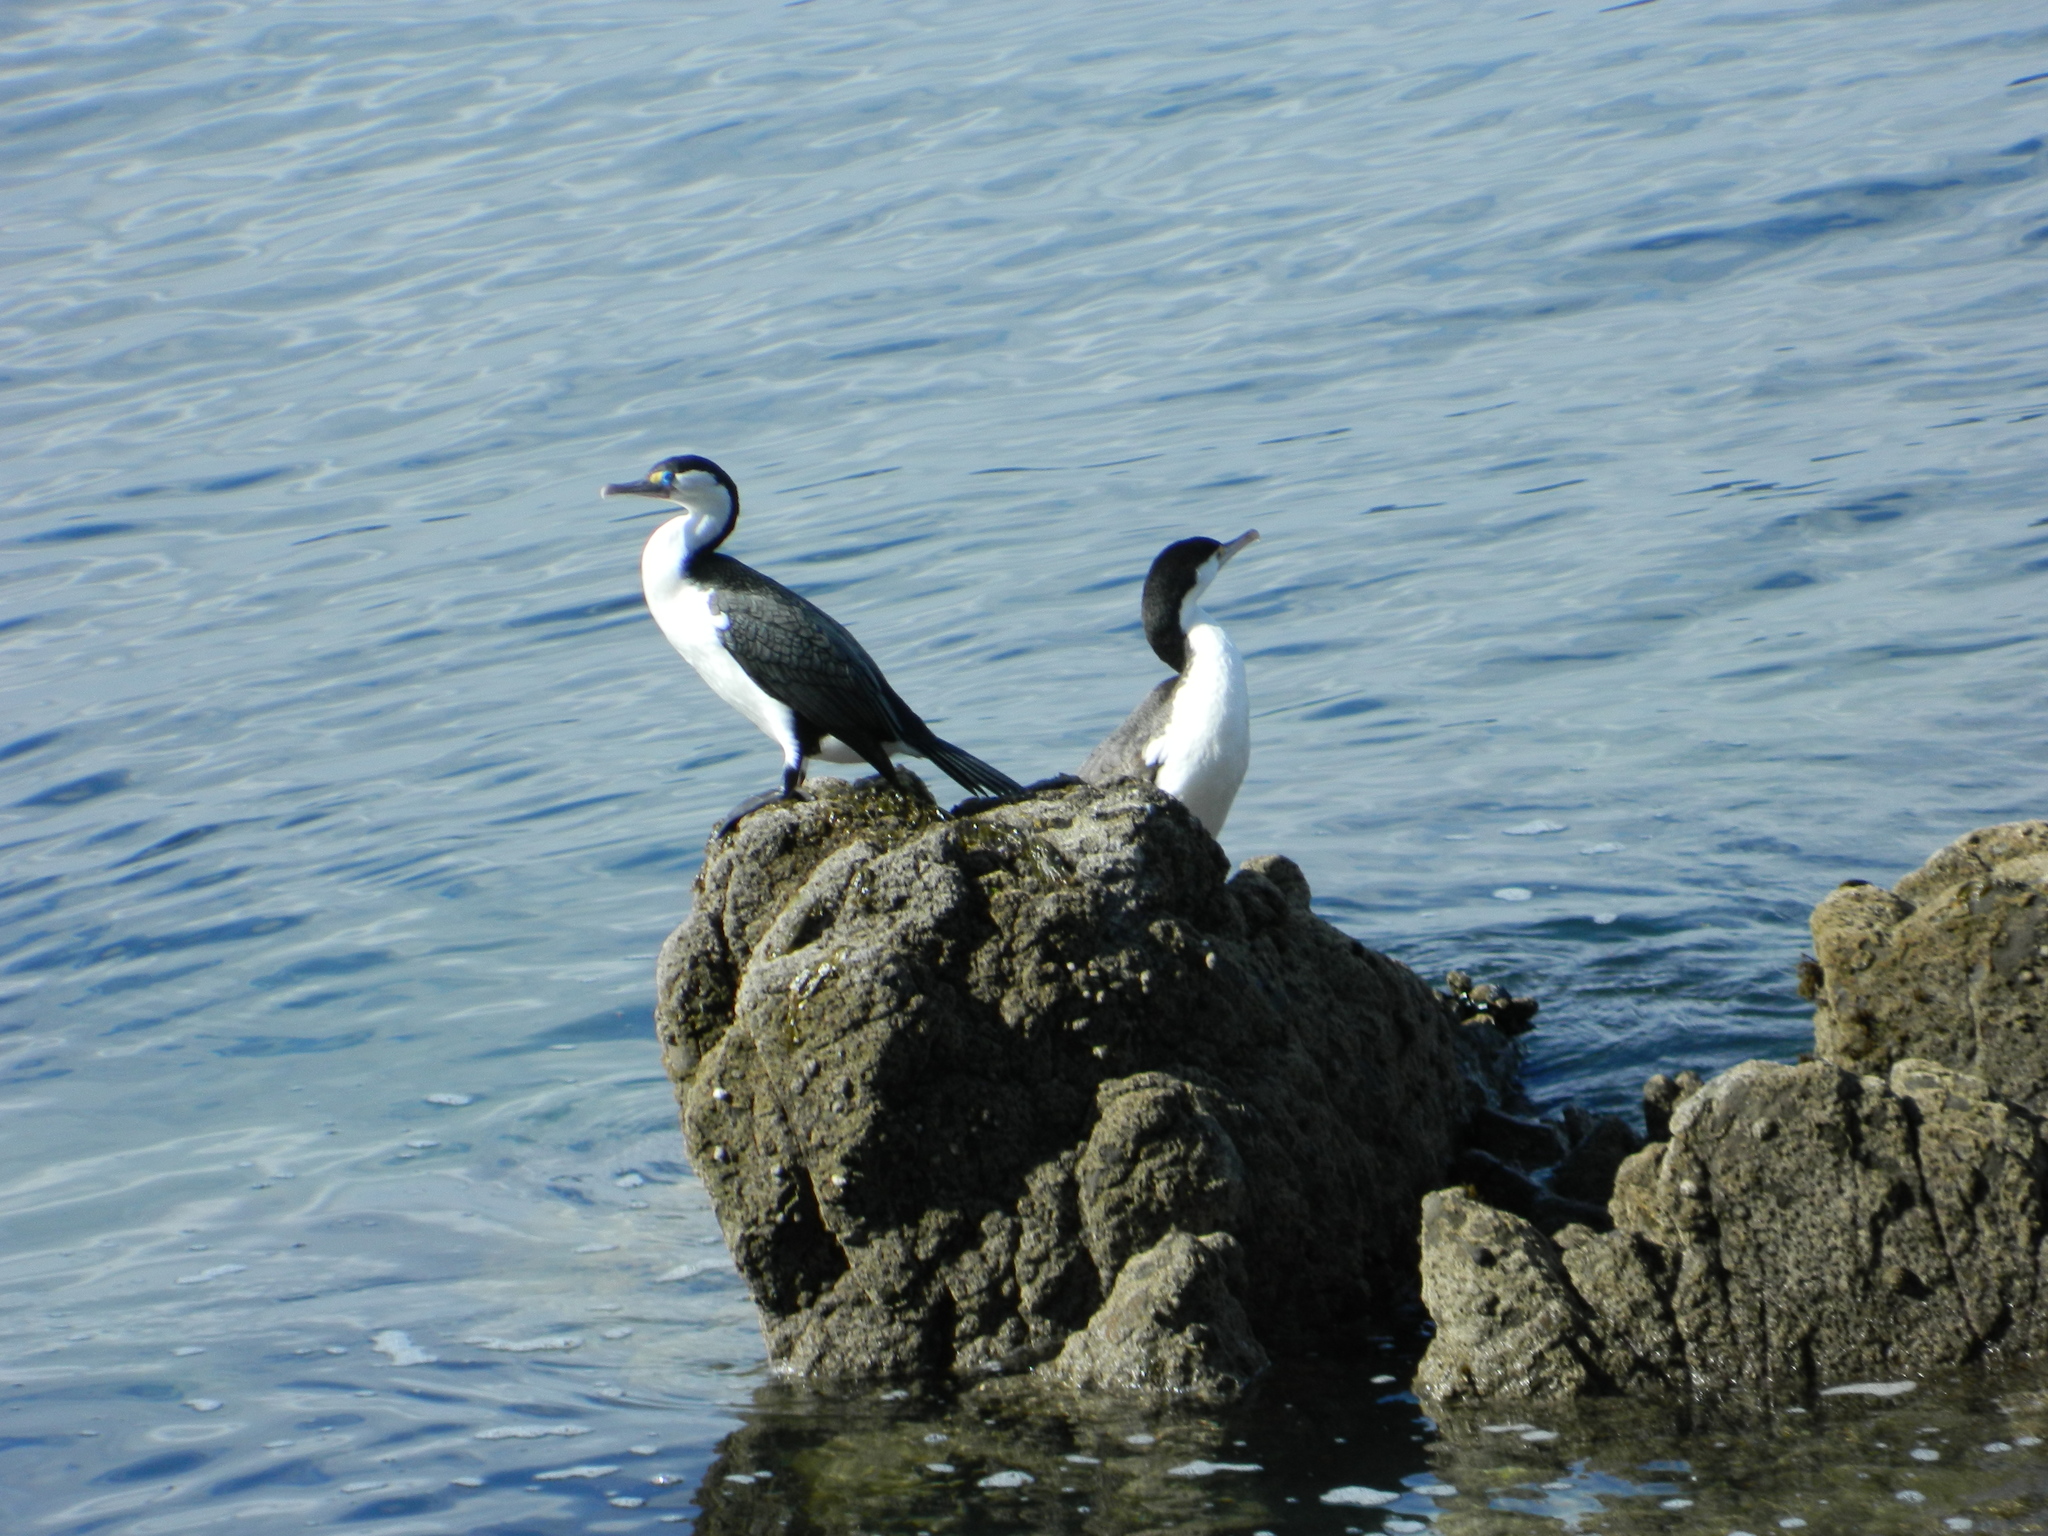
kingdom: Animalia
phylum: Chordata
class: Aves
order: Suliformes
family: Phalacrocoracidae
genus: Phalacrocorax
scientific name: Phalacrocorax varius
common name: Pied cormorant
